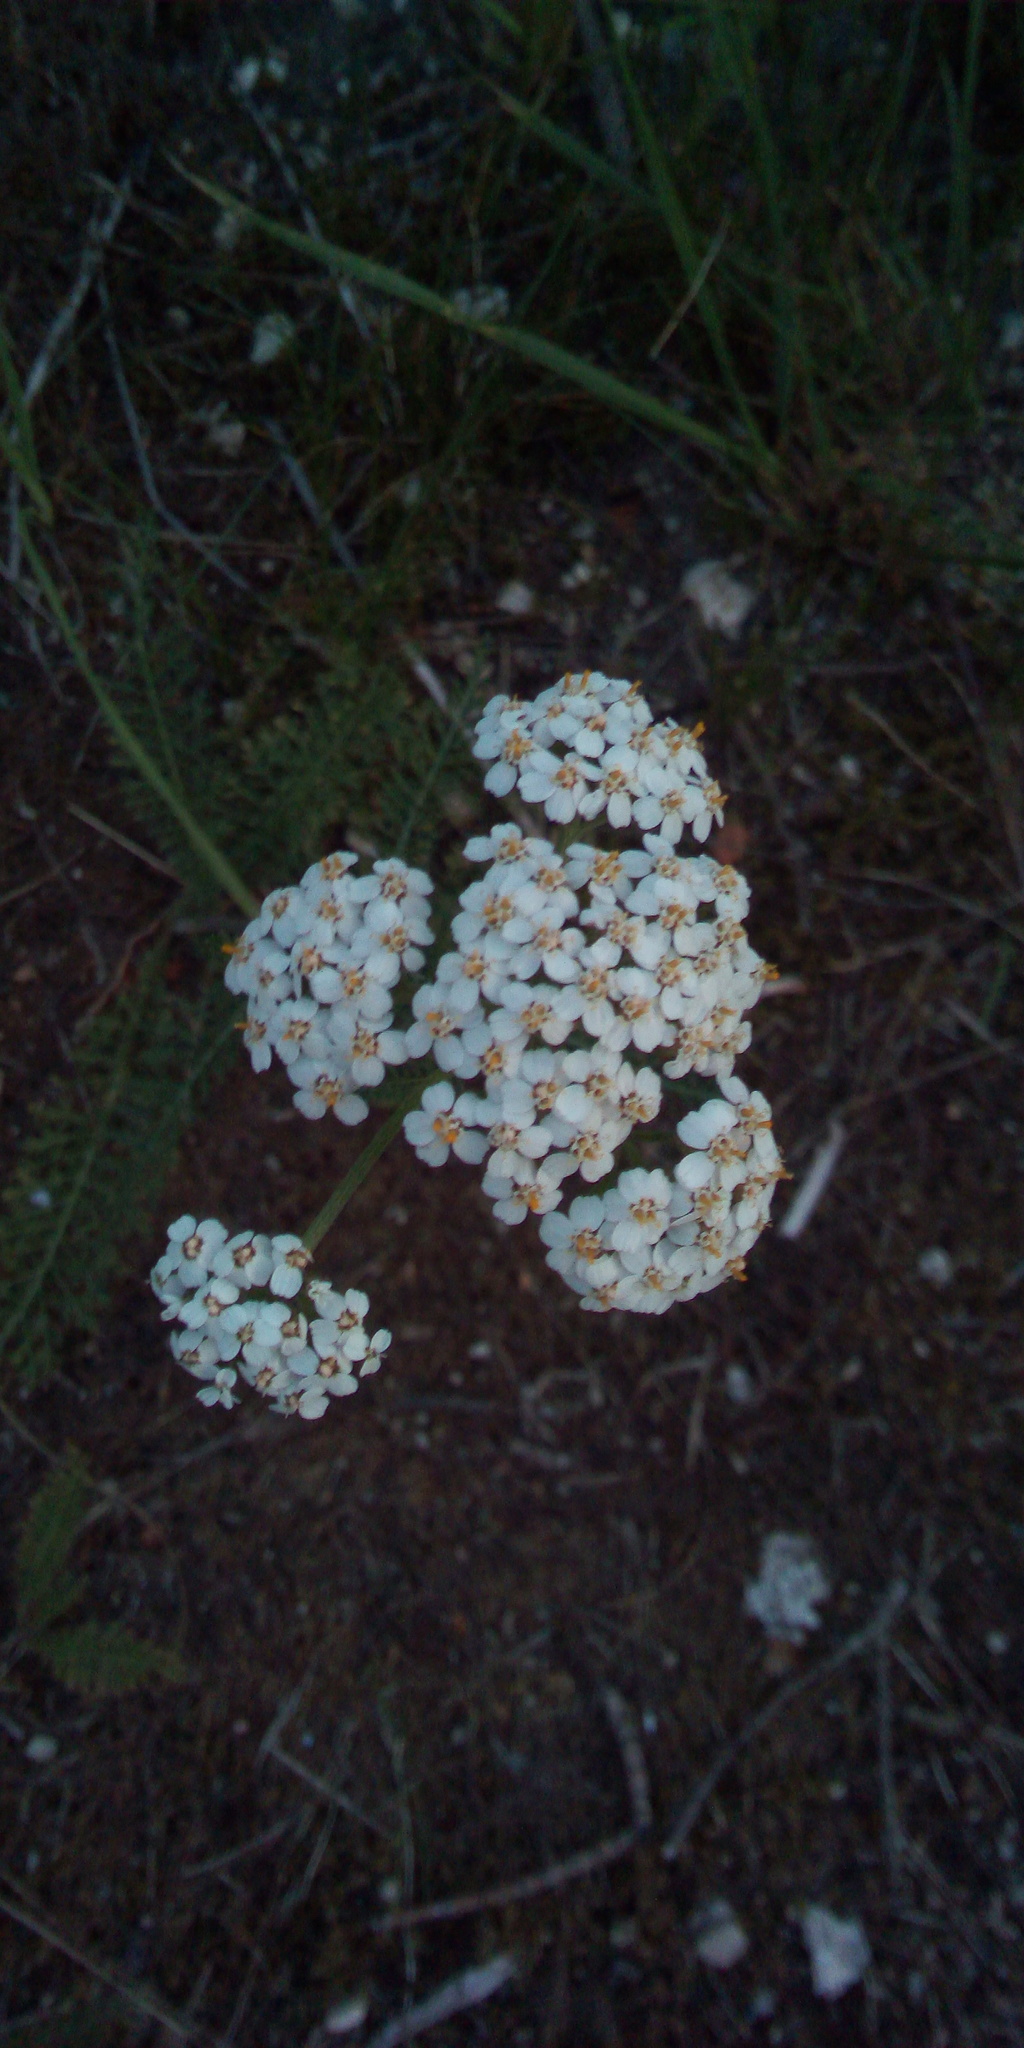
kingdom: Plantae
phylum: Tracheophyta
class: Magnoliopsida
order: Asterales
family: Asteraceae
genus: Achillea
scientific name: Achillea millefolium
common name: Yarrow
